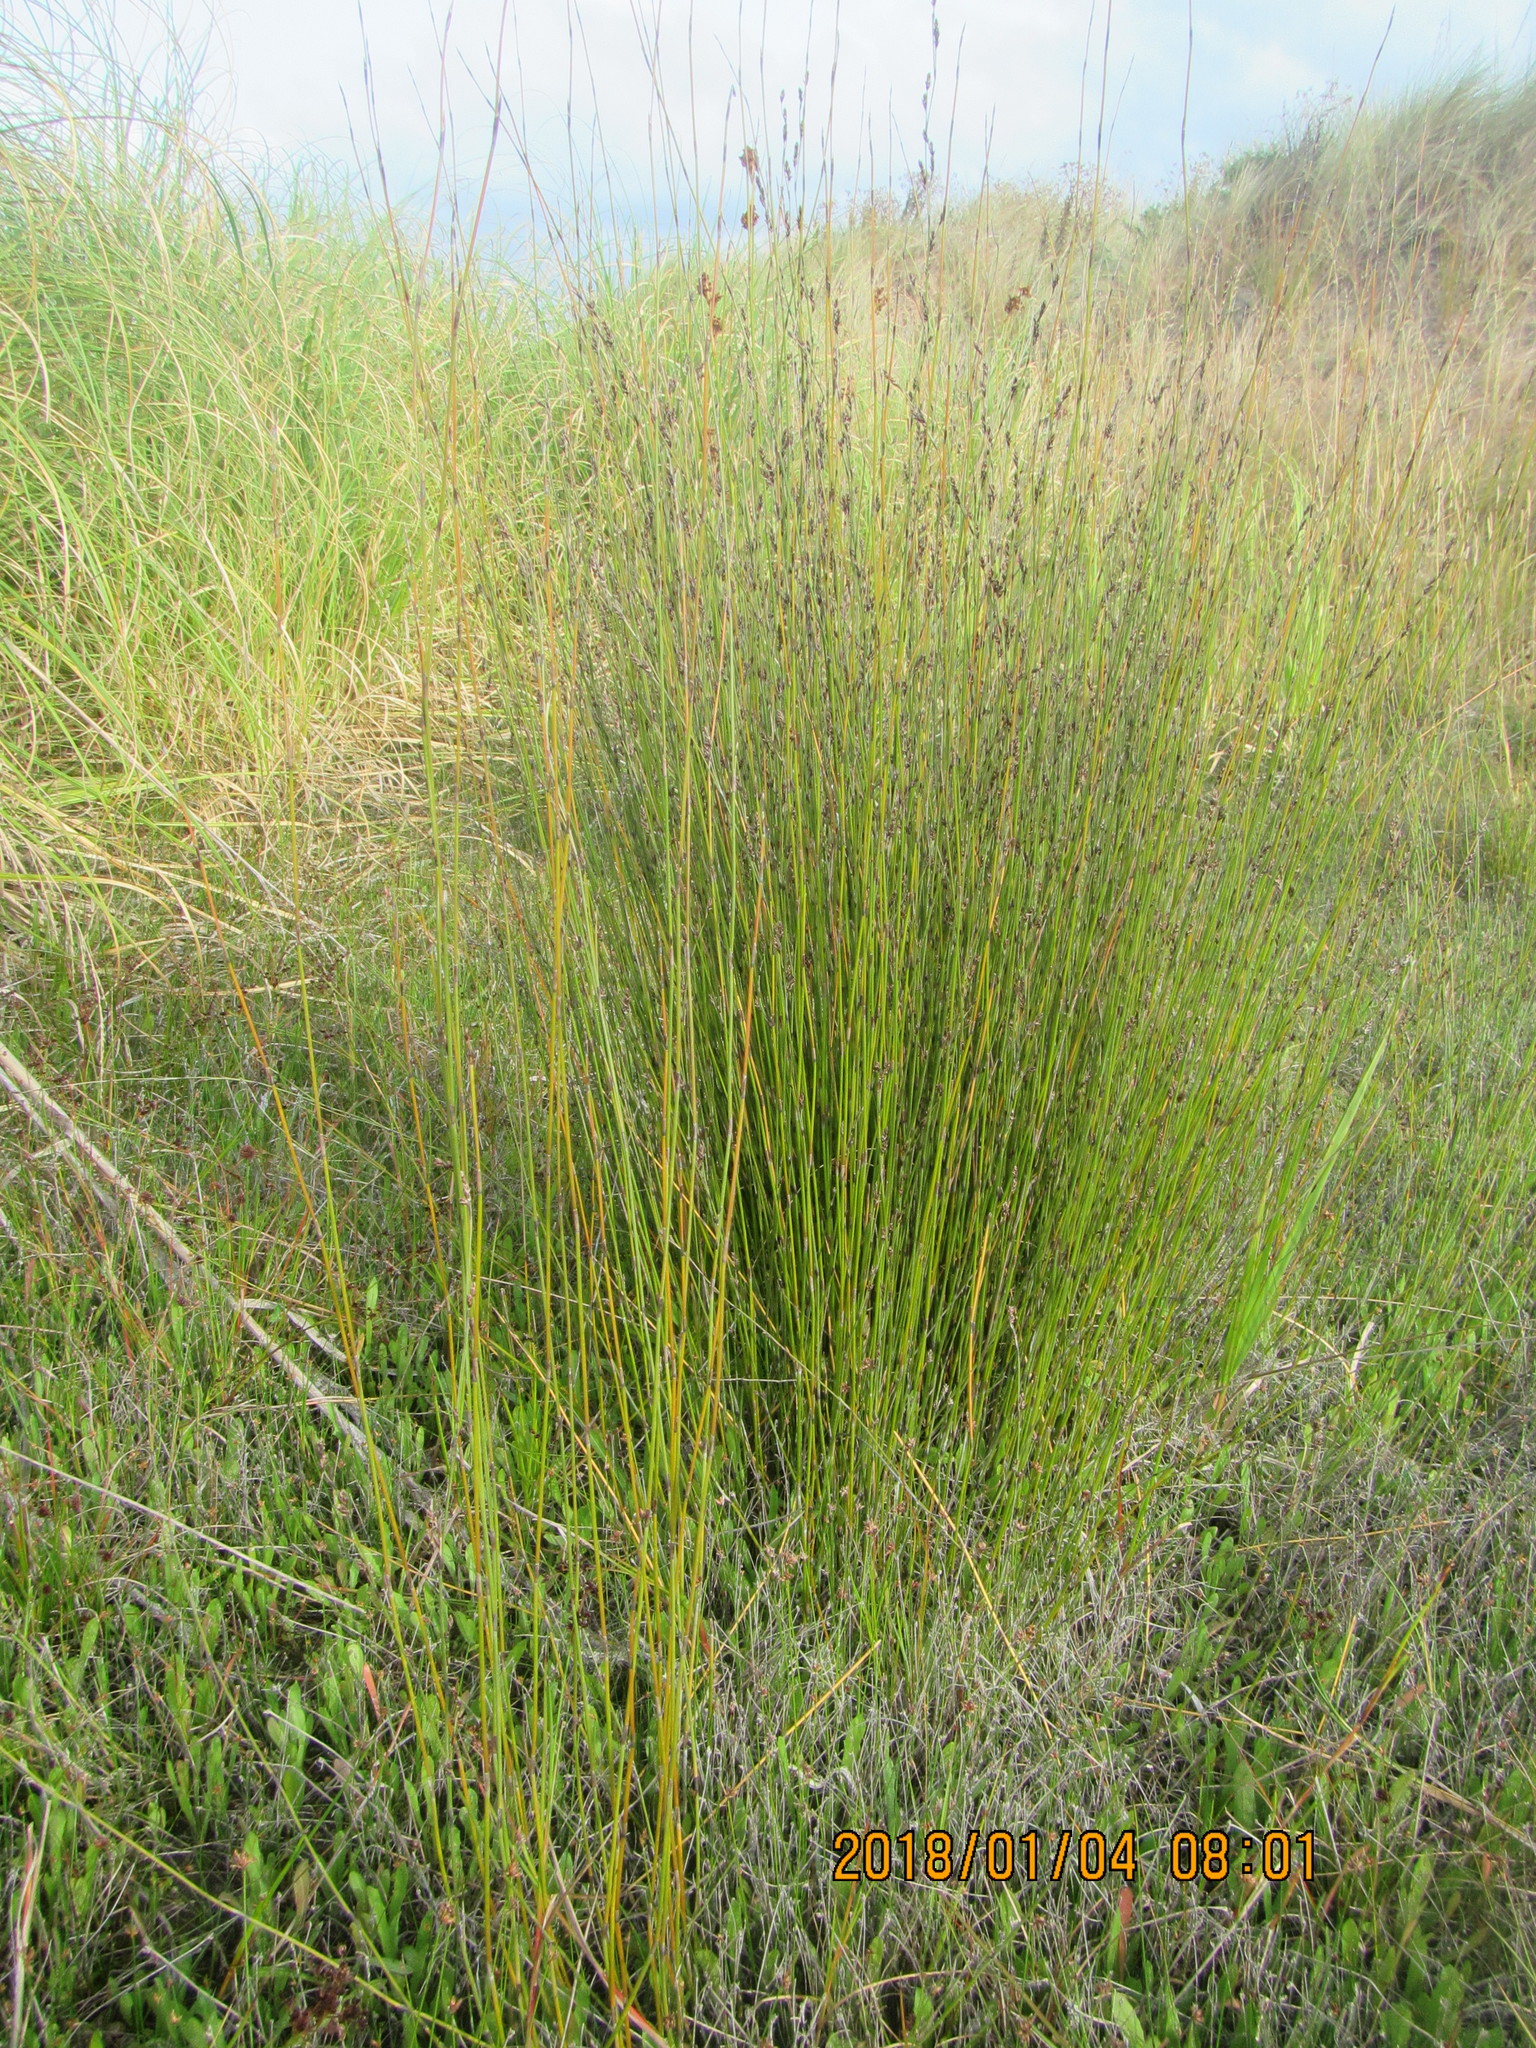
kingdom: Plantae
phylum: Tracheophyta
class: Liliopsida
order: Poales
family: Restionaceae
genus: Apodasmia
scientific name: Apodasmia similis
